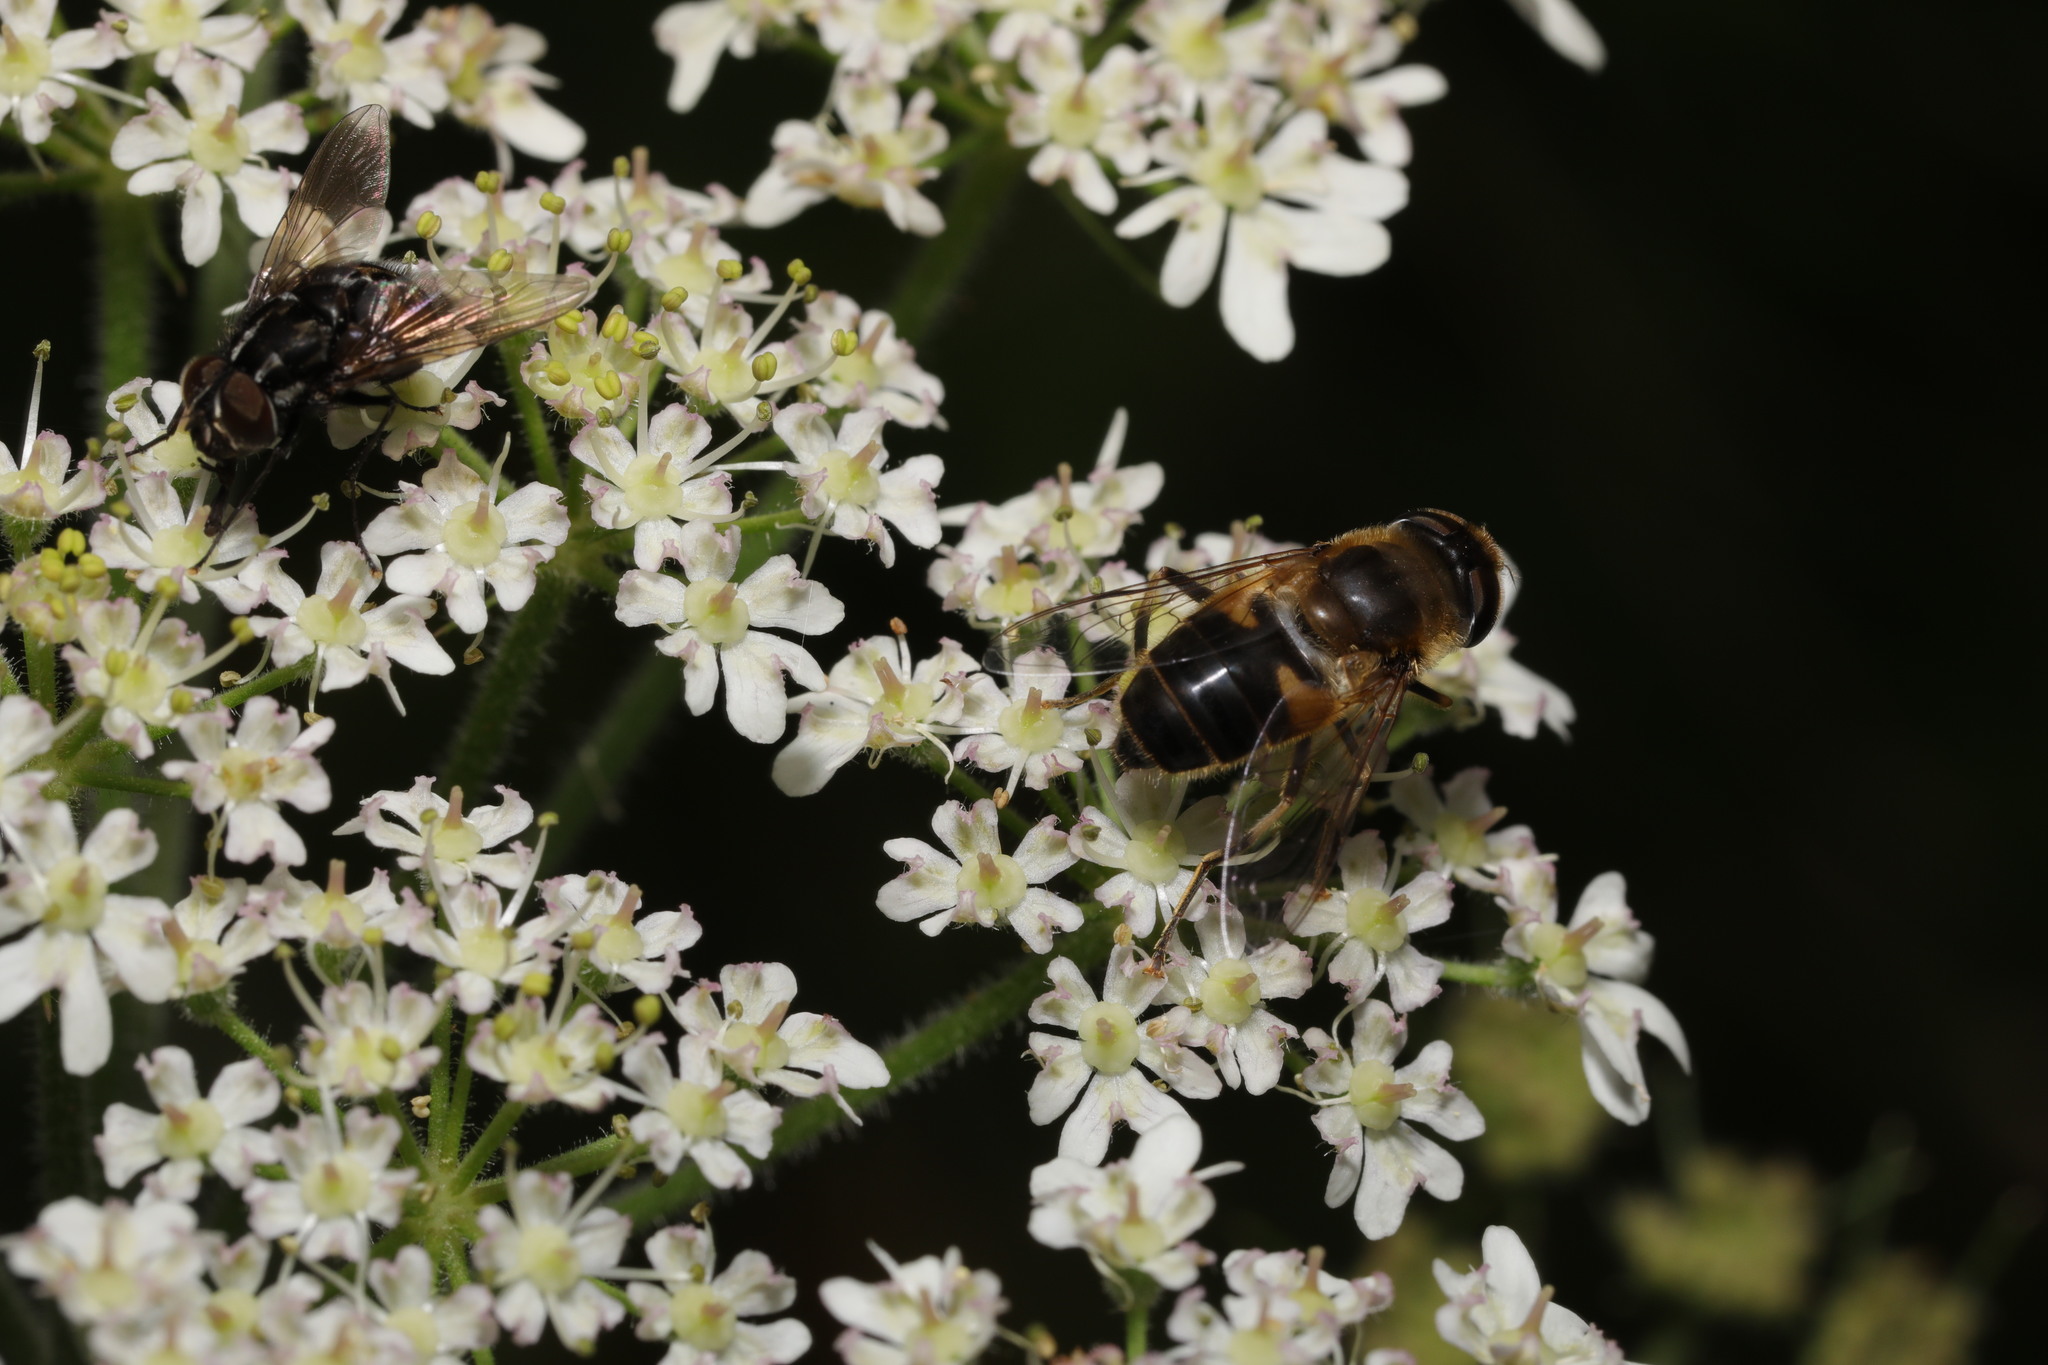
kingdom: Animalia
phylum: Arthropoda
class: Insecta
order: Diptera
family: Syrphidae
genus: Eristalis
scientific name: Eristalis pertinax
